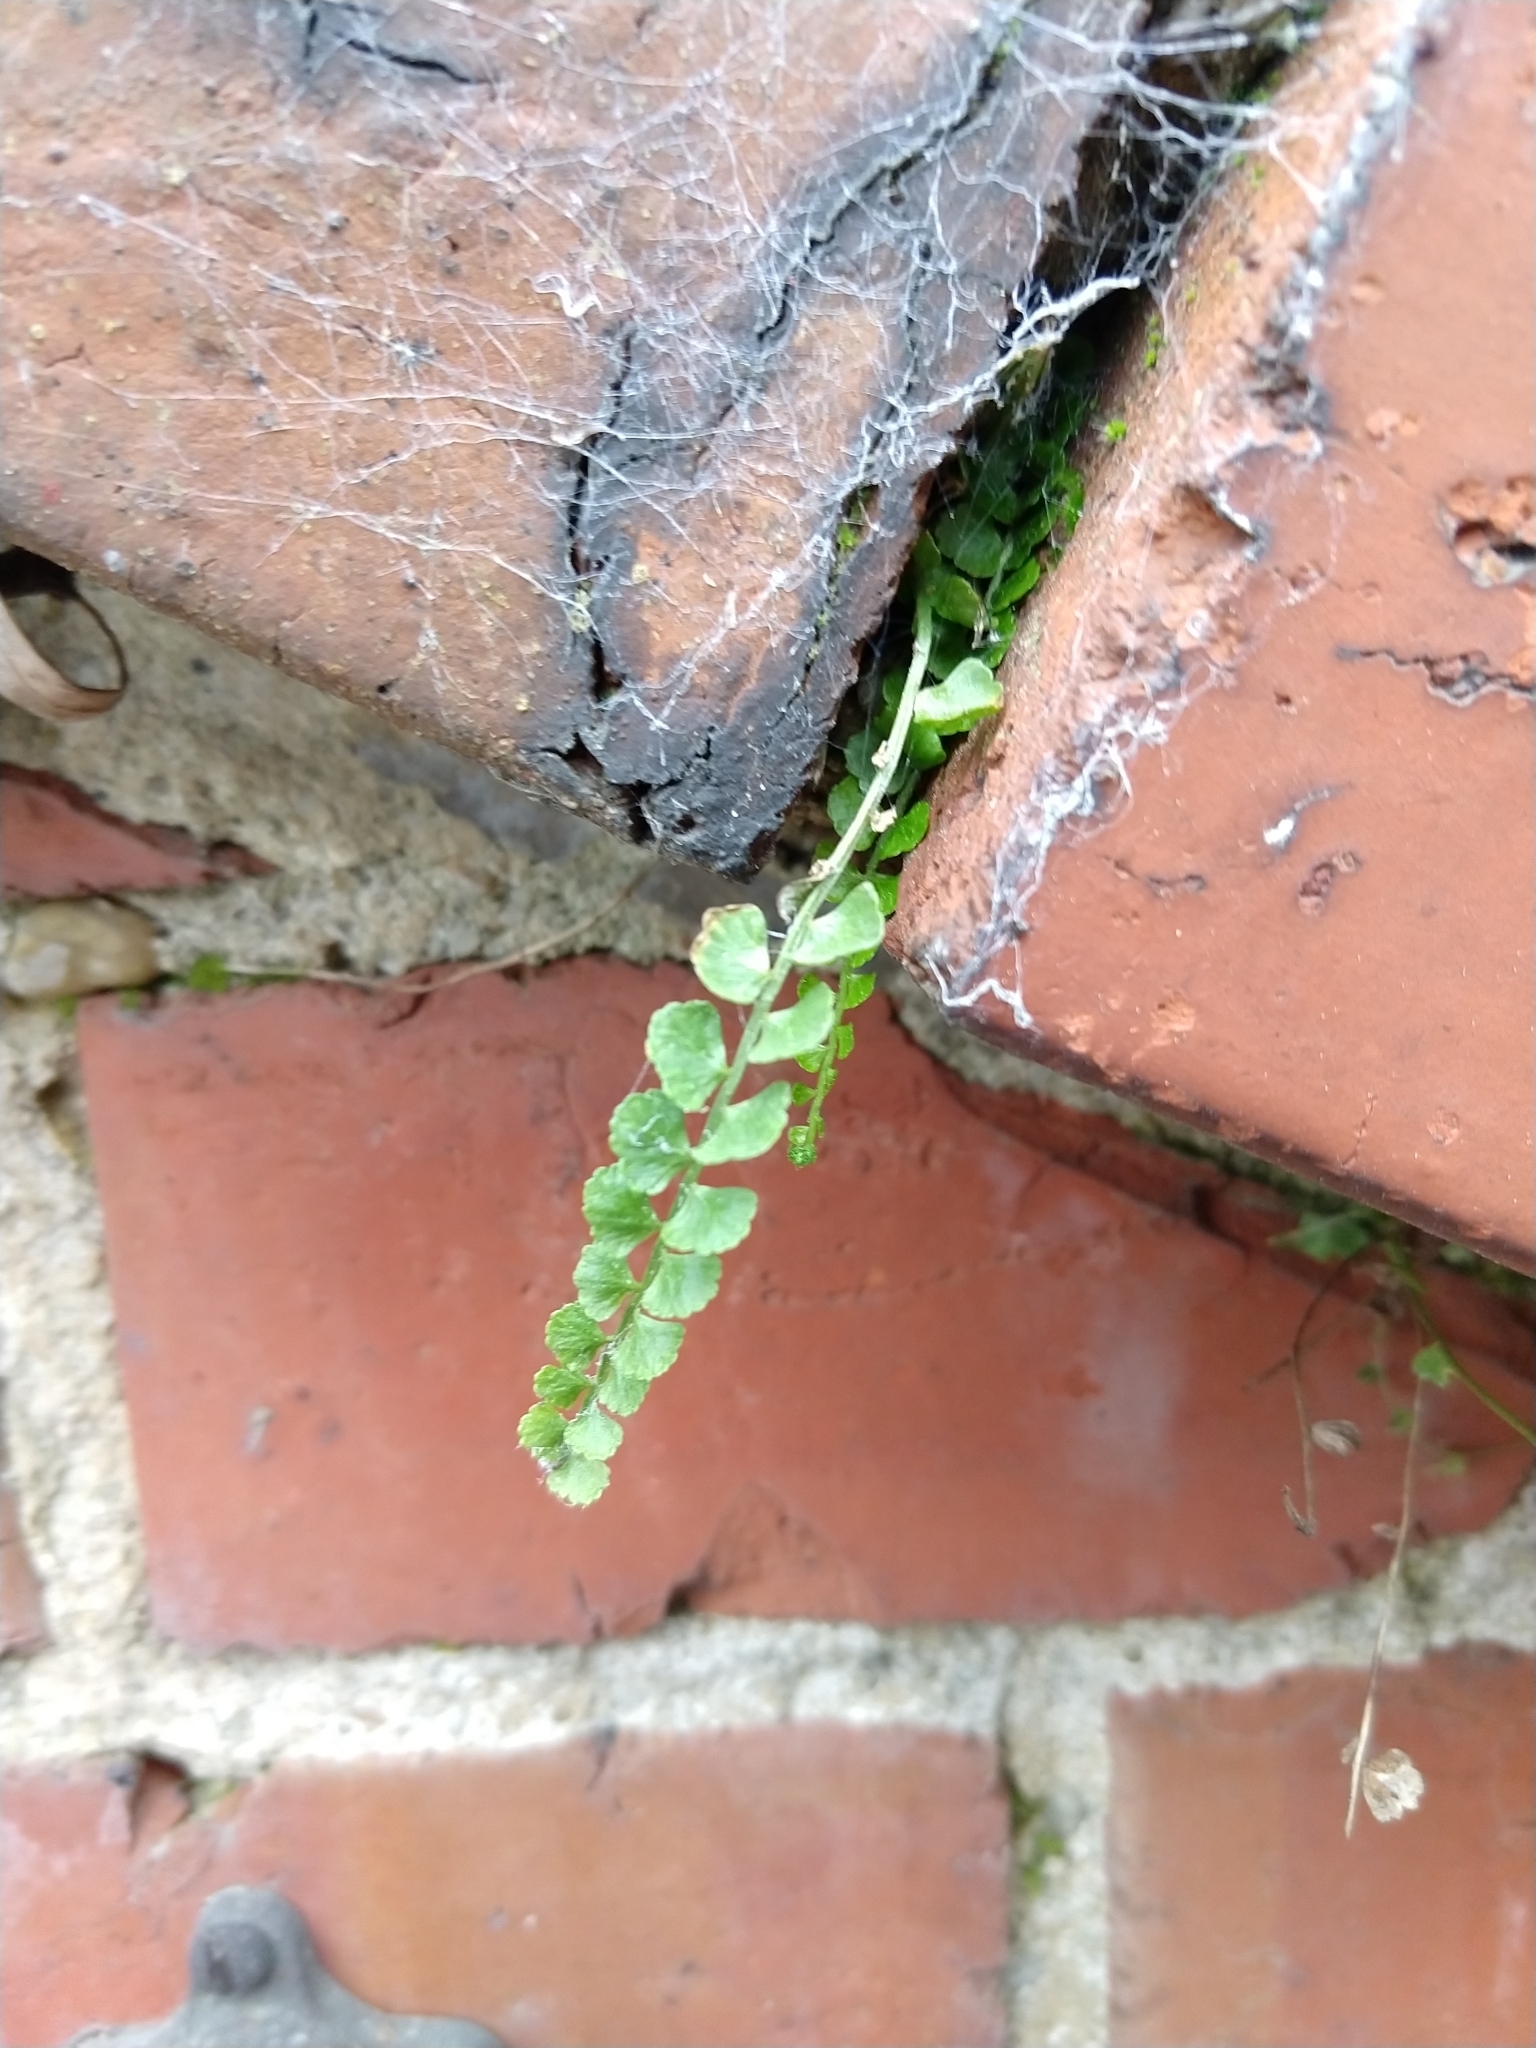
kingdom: Plantae
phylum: Tracheophyta
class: Polypodiopsida
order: Polypodiales
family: Aspleniaceae
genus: Asplenium
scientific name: Asplenium flabellifolium
